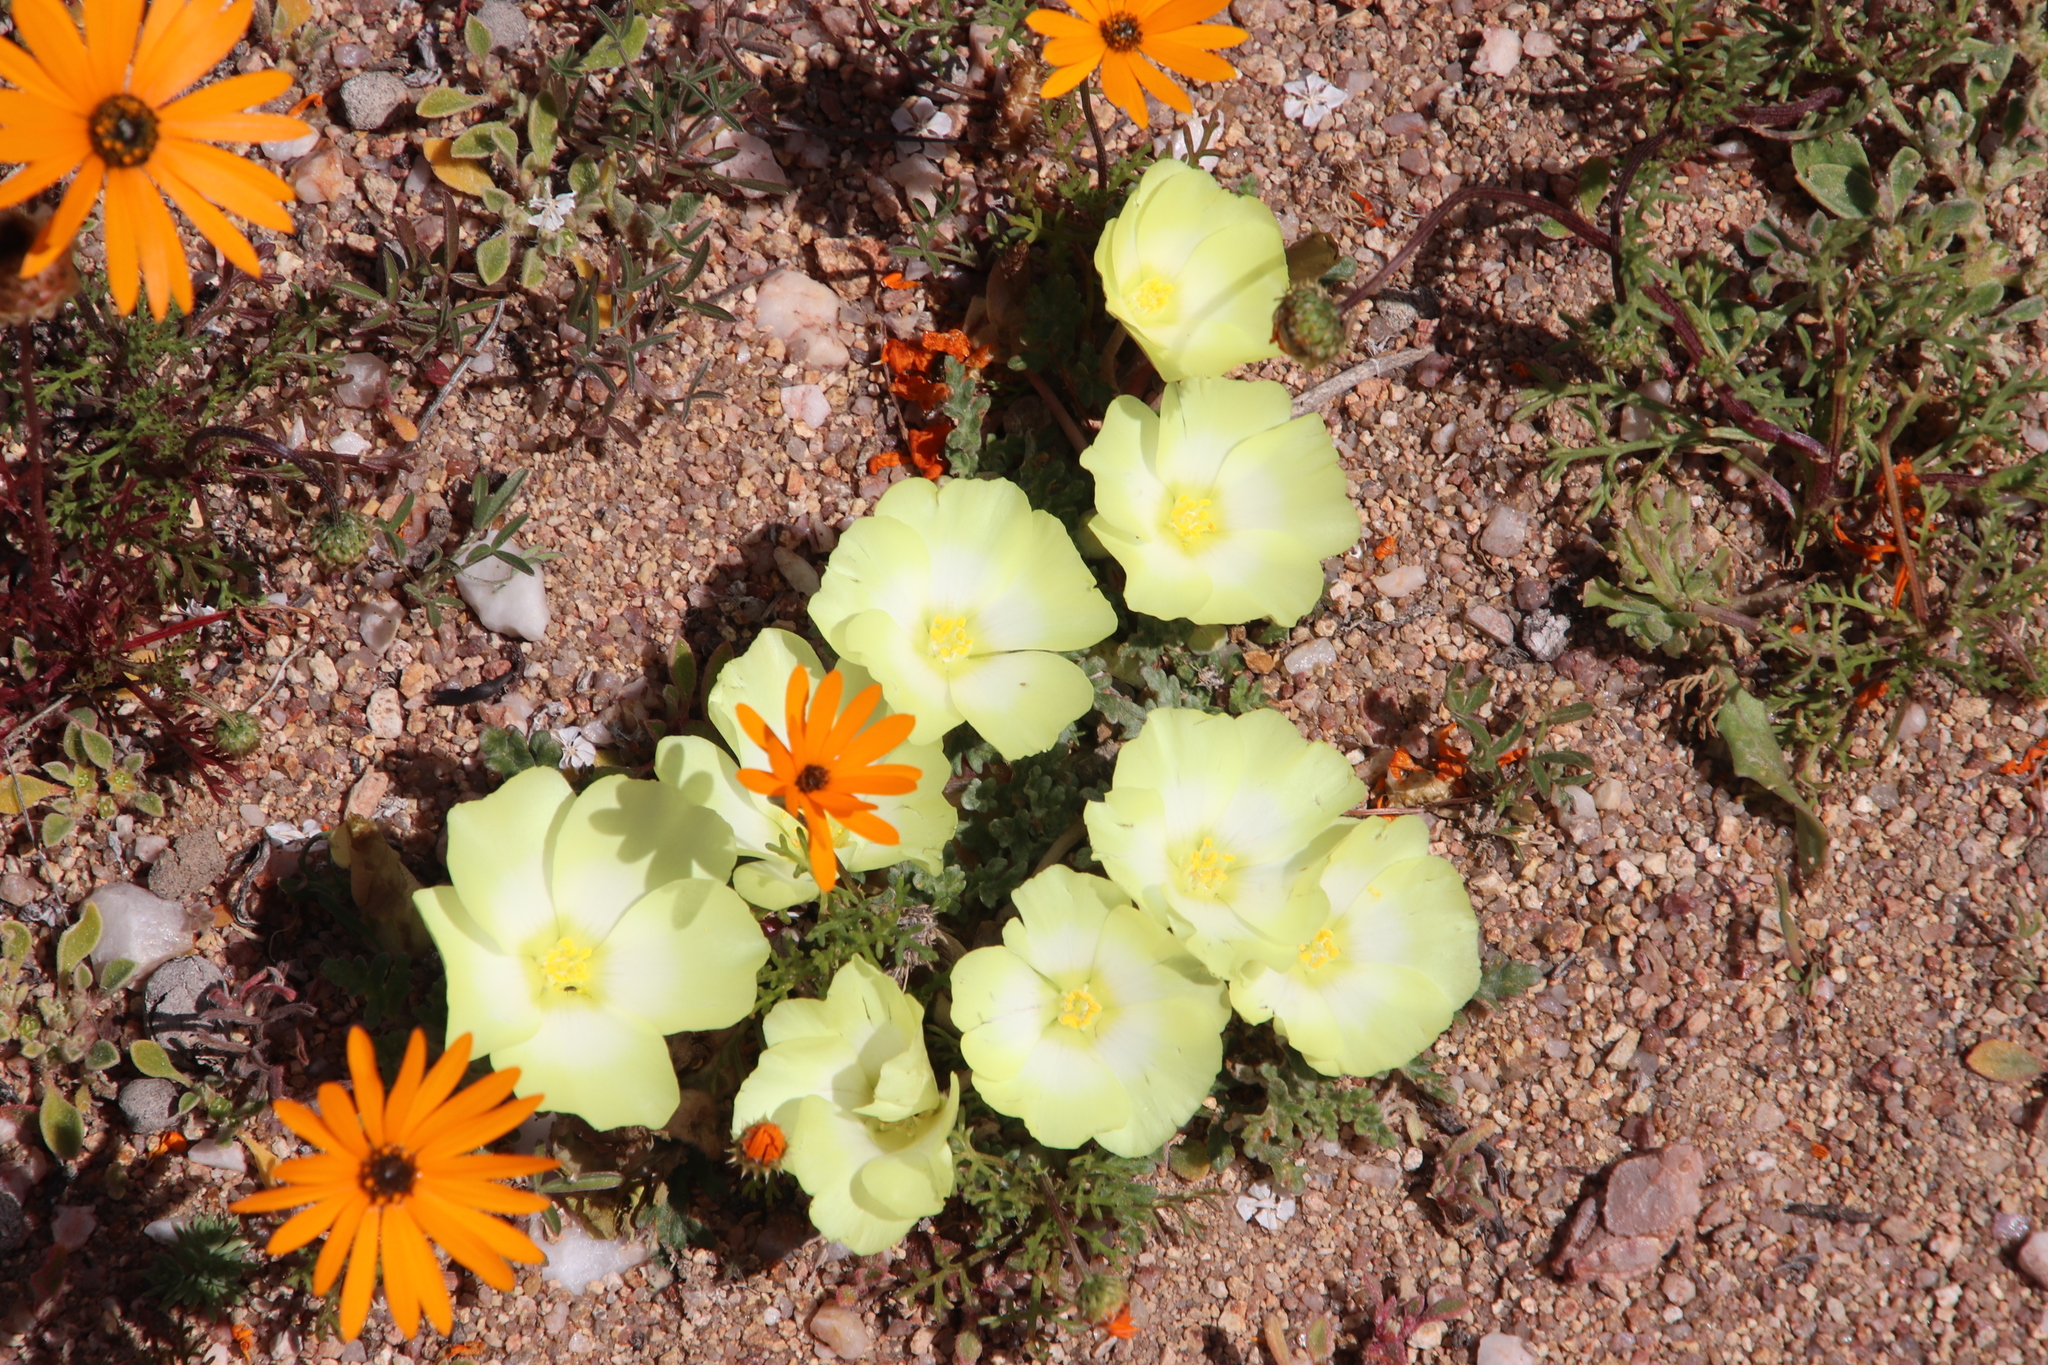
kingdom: Plantae
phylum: Tracheophyta
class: Magnoliopsida
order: Malvales
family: Neuradaceae
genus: Grielum
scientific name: Grielum humifusum
